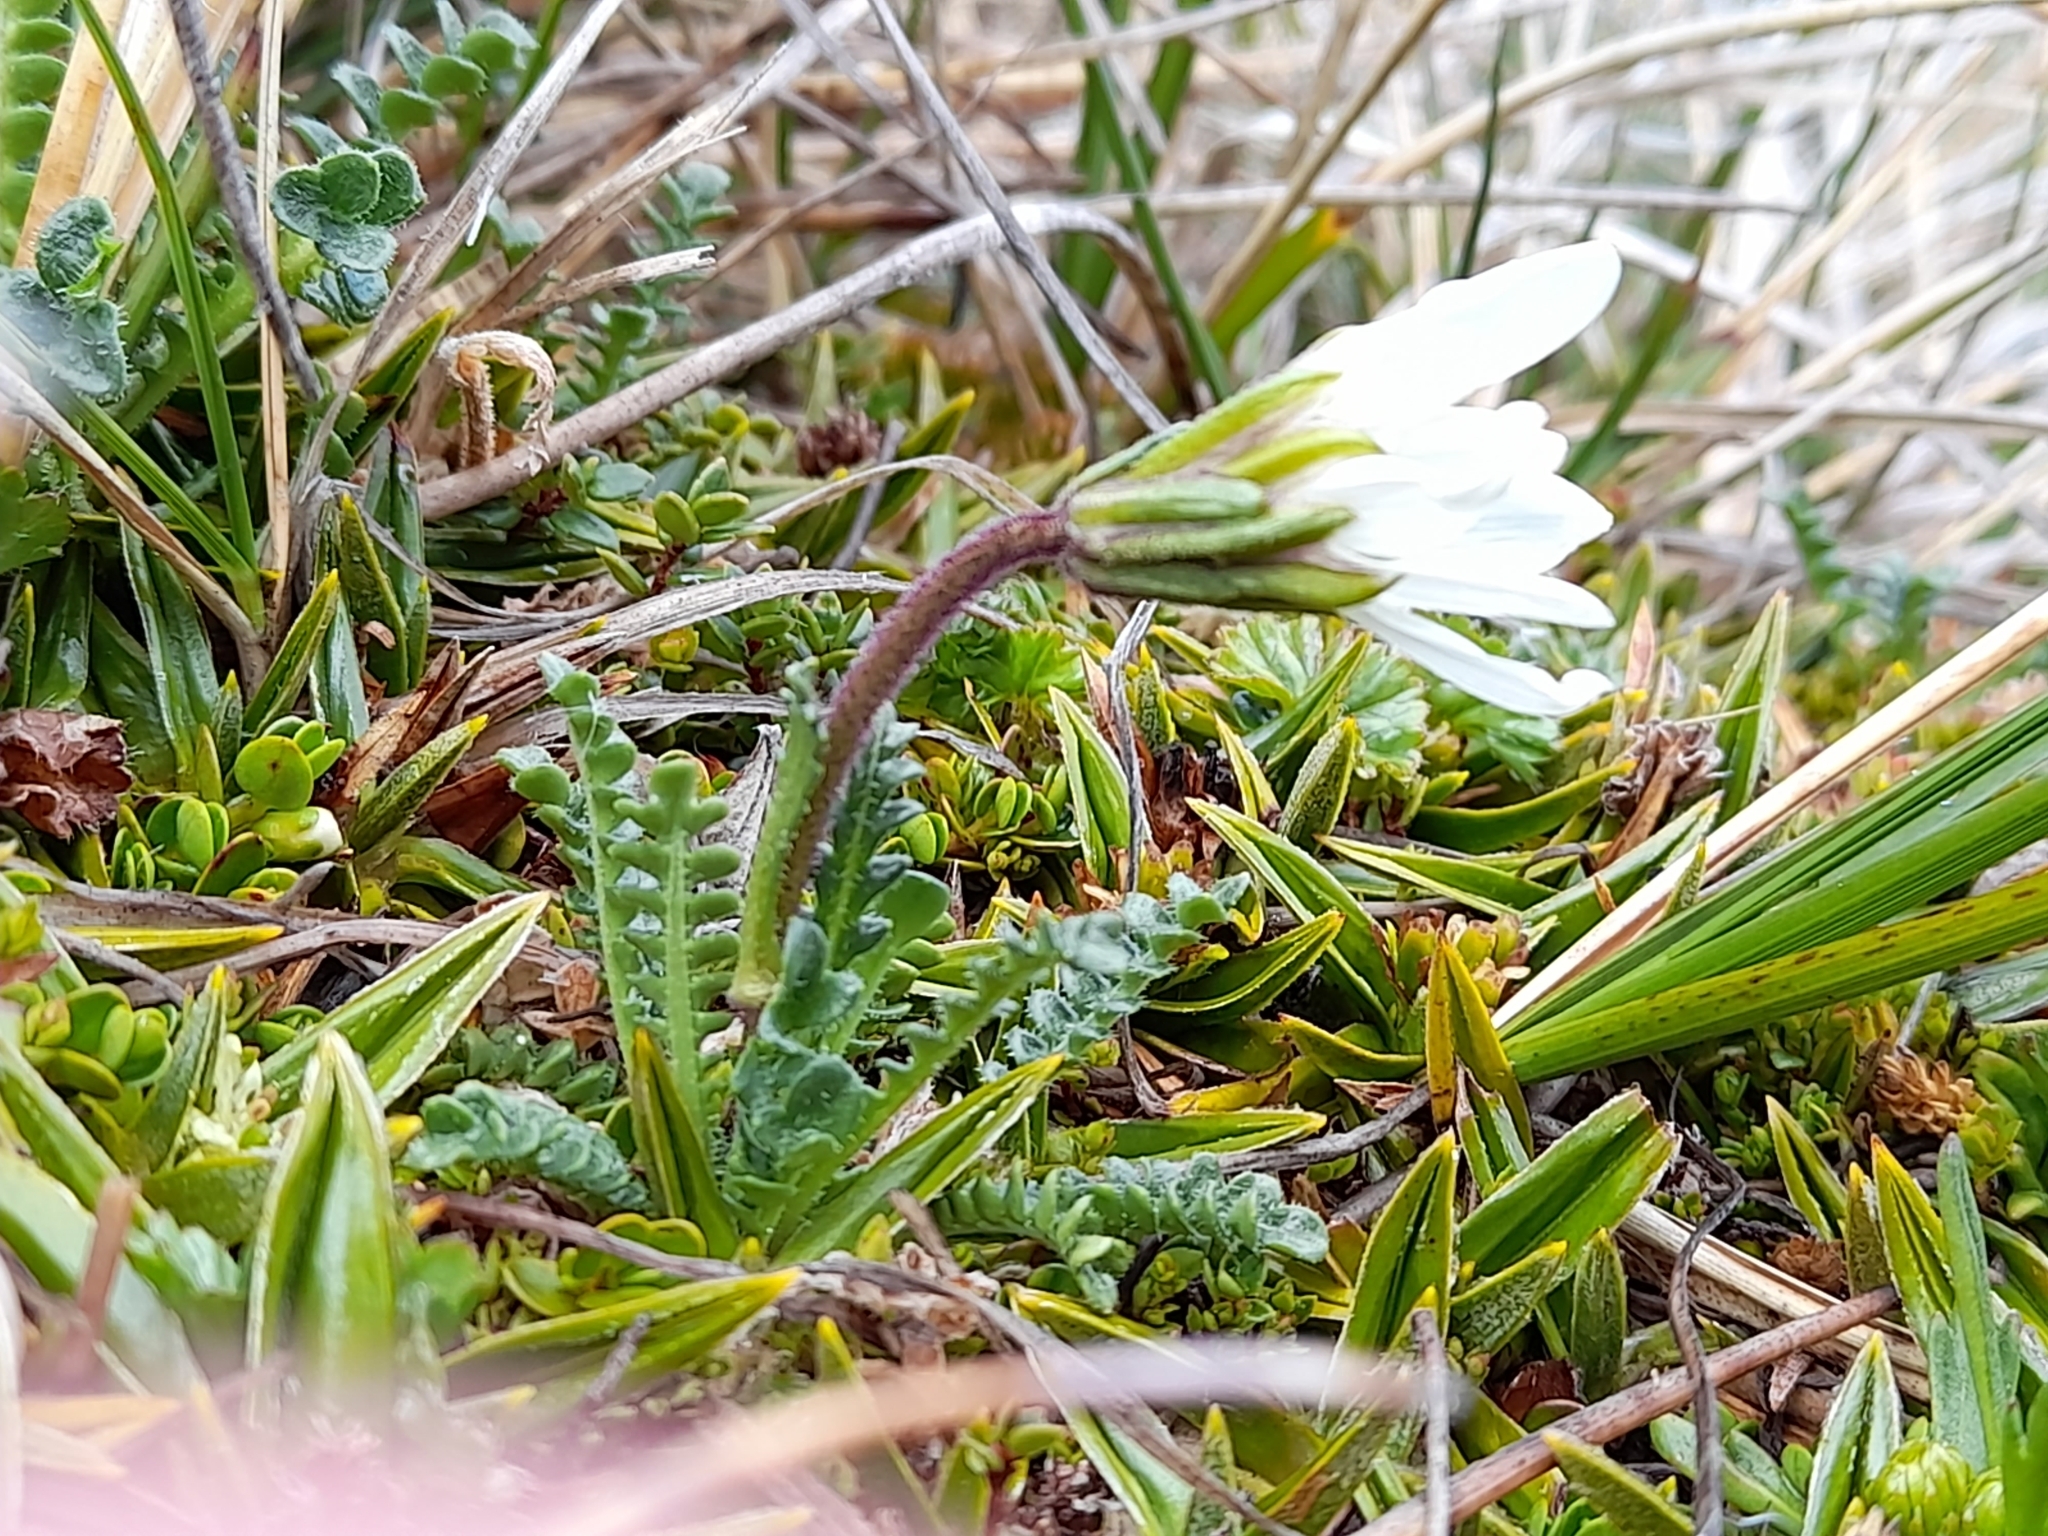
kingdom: Plantae
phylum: Tracheophyta
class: Magnoliopsida
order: Asterales
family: Asteraceae
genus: Perezia
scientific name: Perezia magellanica
